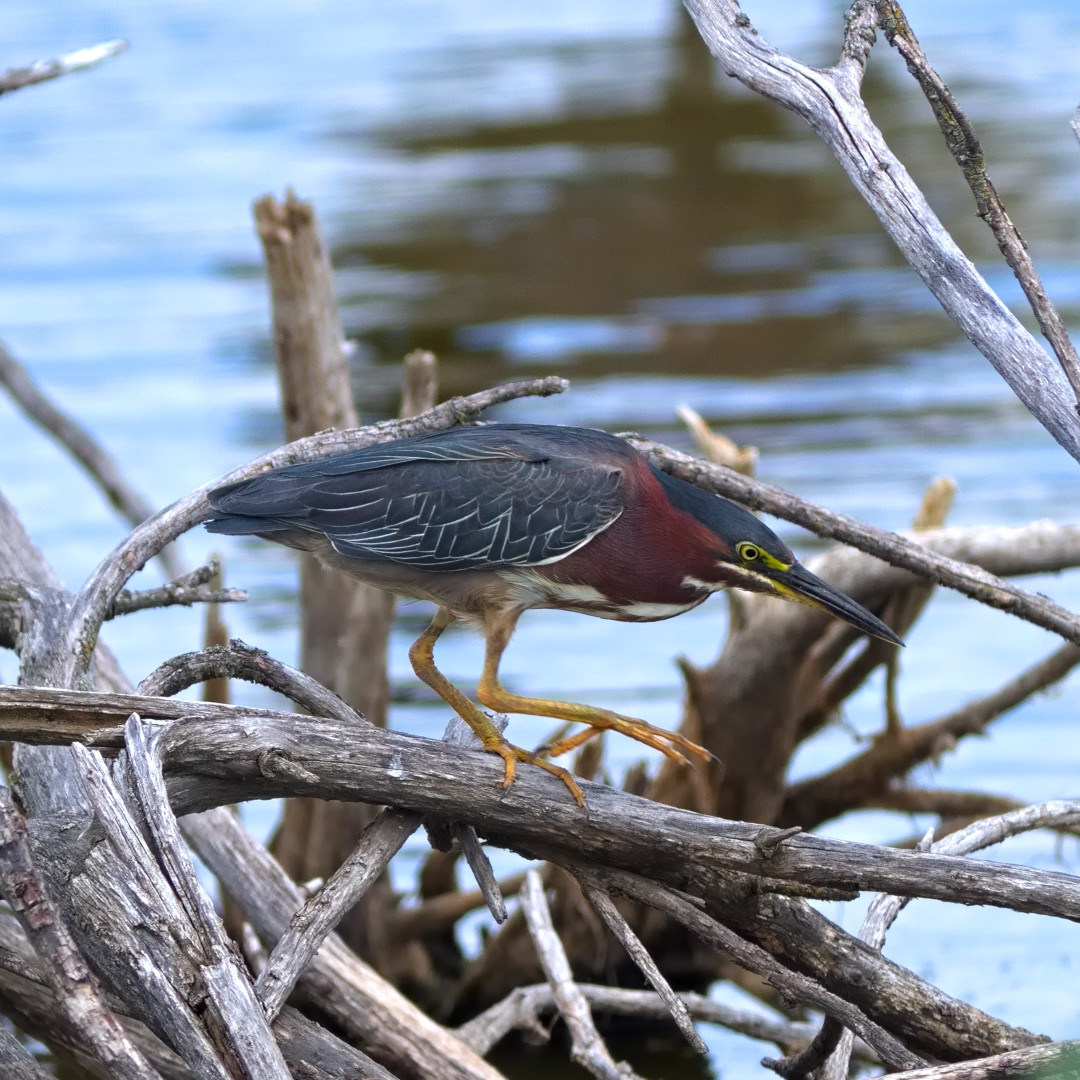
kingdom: Animalia
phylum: Chordata
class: Aves
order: Pelecaniformes
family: Ardeidae
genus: Butorides
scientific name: Butorides virescens
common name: Green heron
